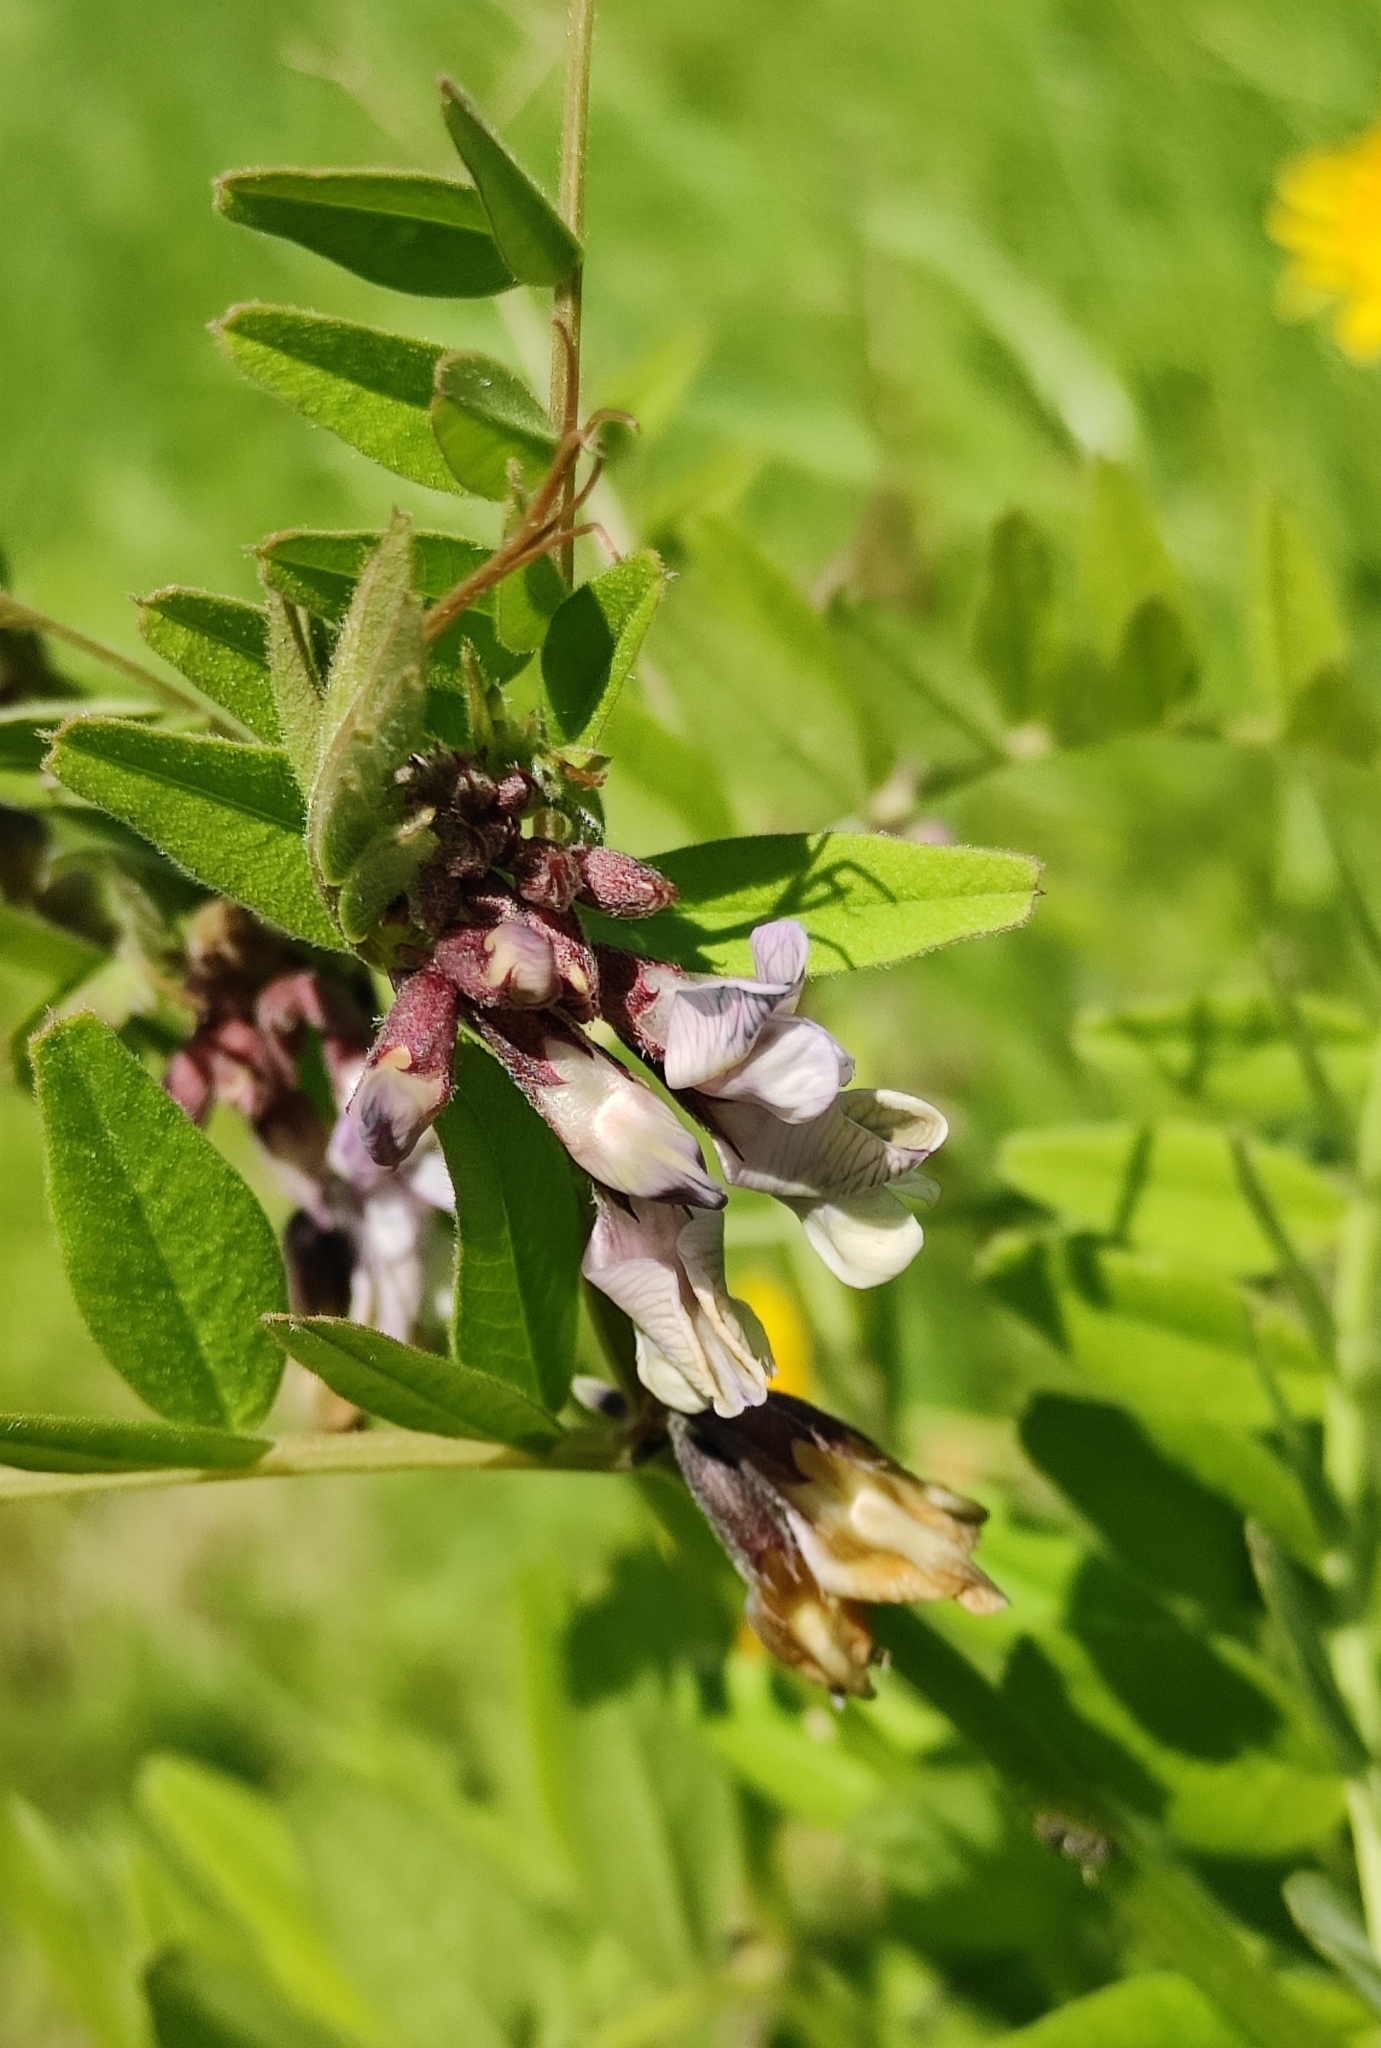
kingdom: Plantae
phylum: Tracheophyta
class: Magnoliopsida
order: Fabales
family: Fabaceae
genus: Vicia
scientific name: Vicia sepium
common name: Bush vetch
